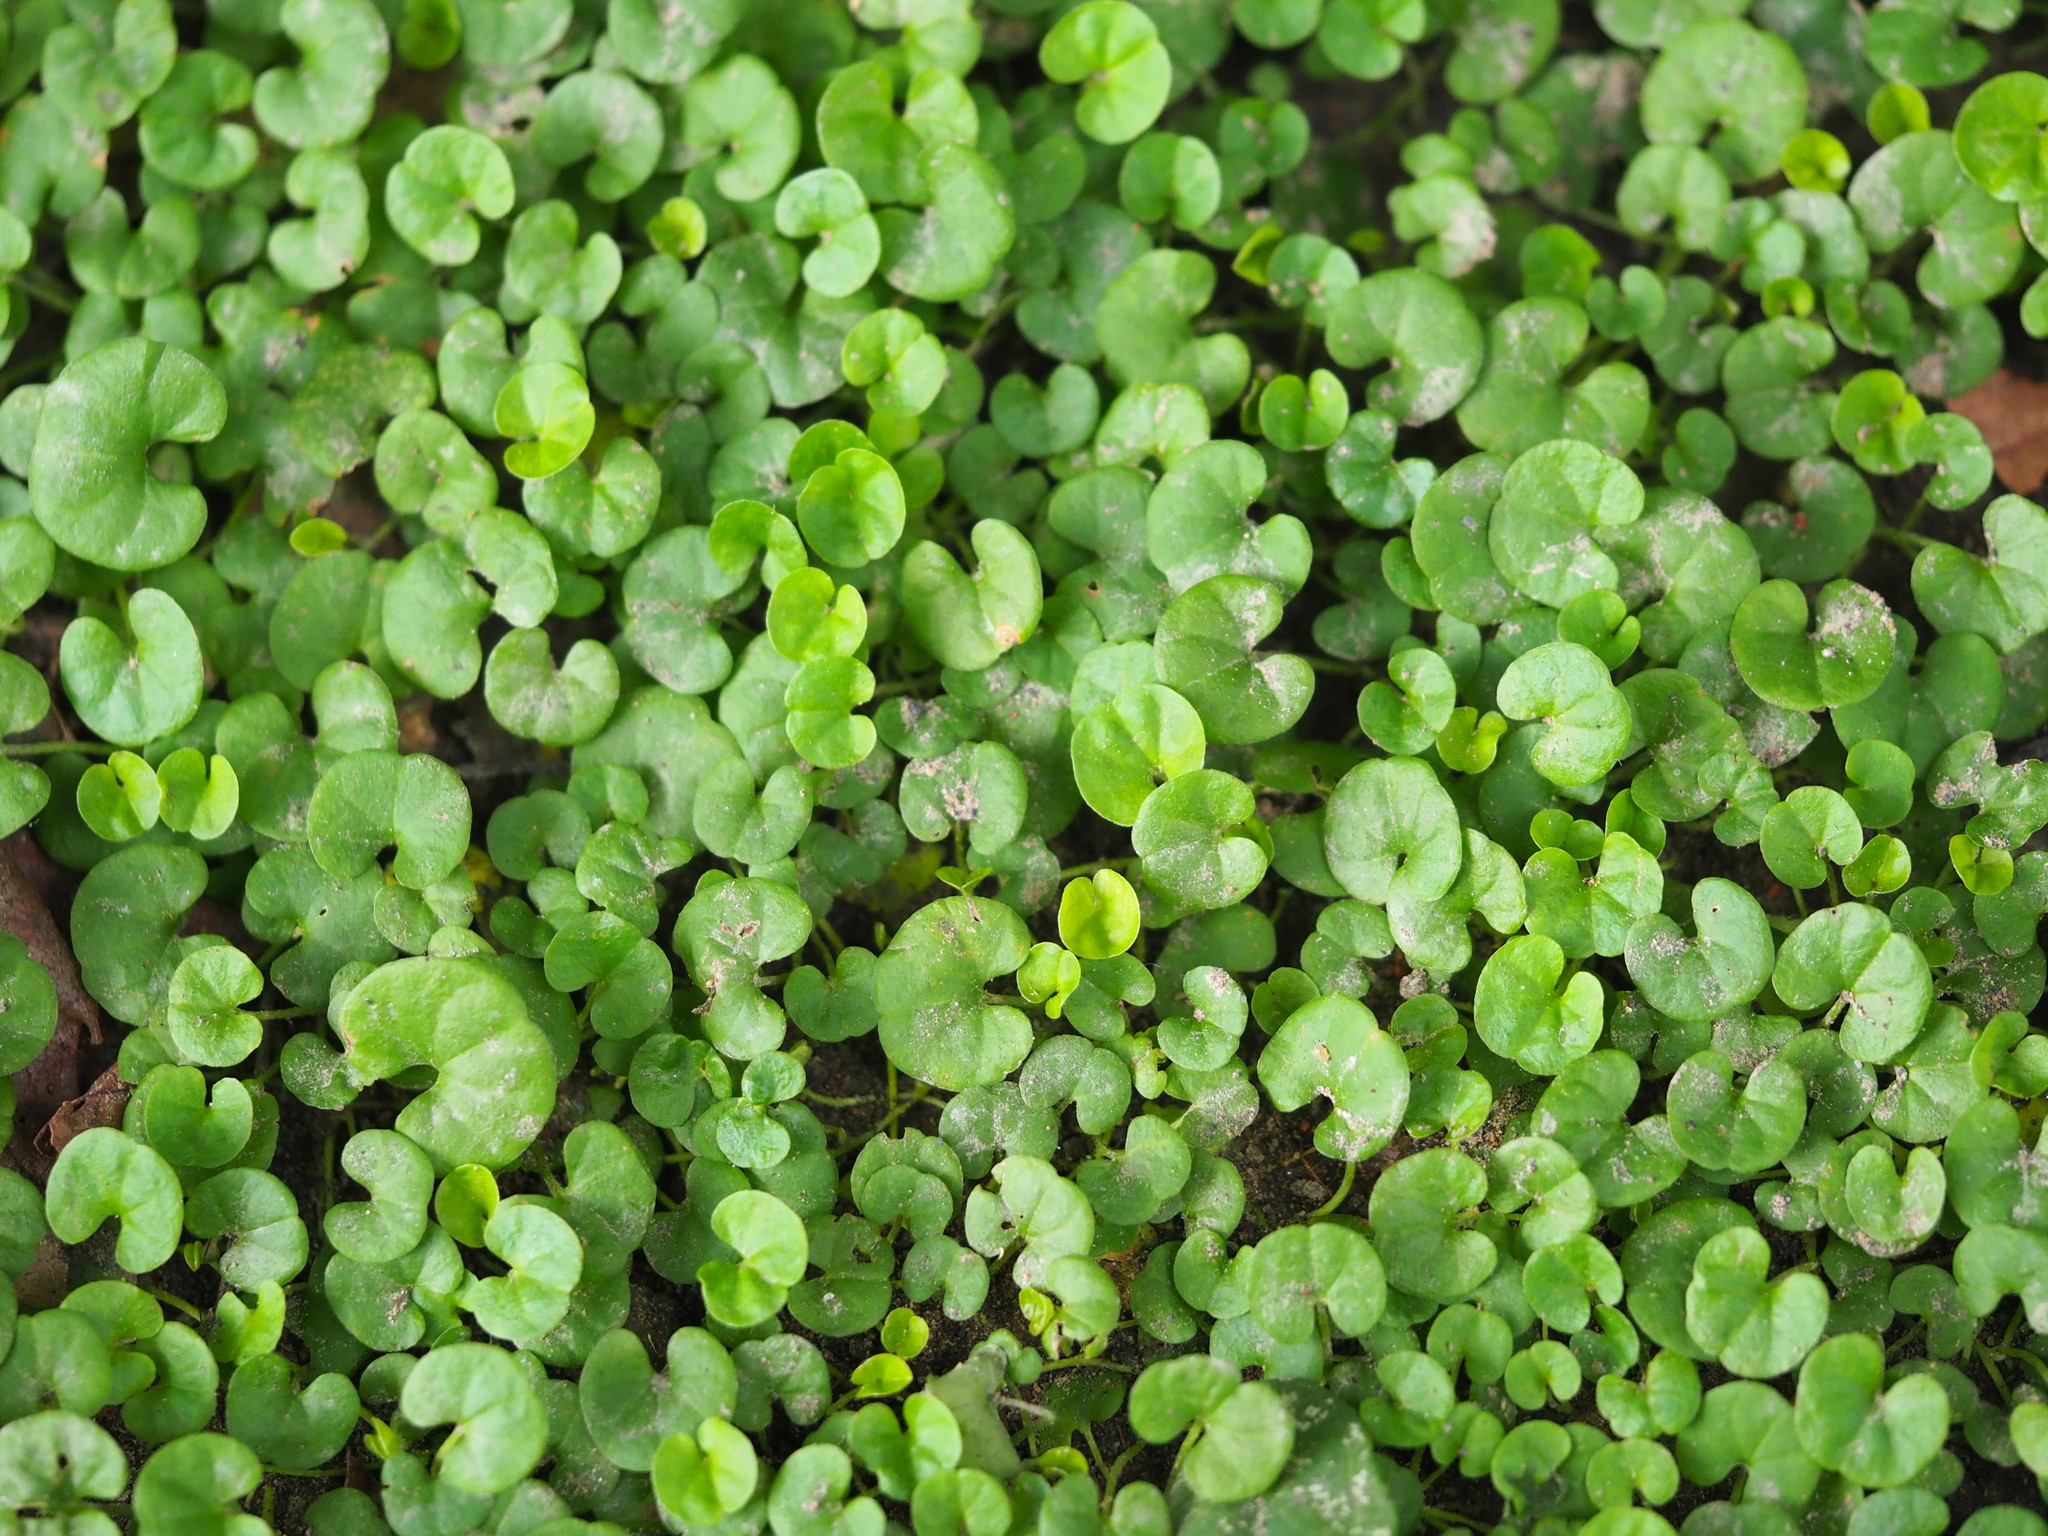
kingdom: Plantae
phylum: Tracheophyta
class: Magnoliopsida
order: Solanales
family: Convolvulaceae
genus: Dichondra
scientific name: Dichondra micrantha
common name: Kidneyweed
